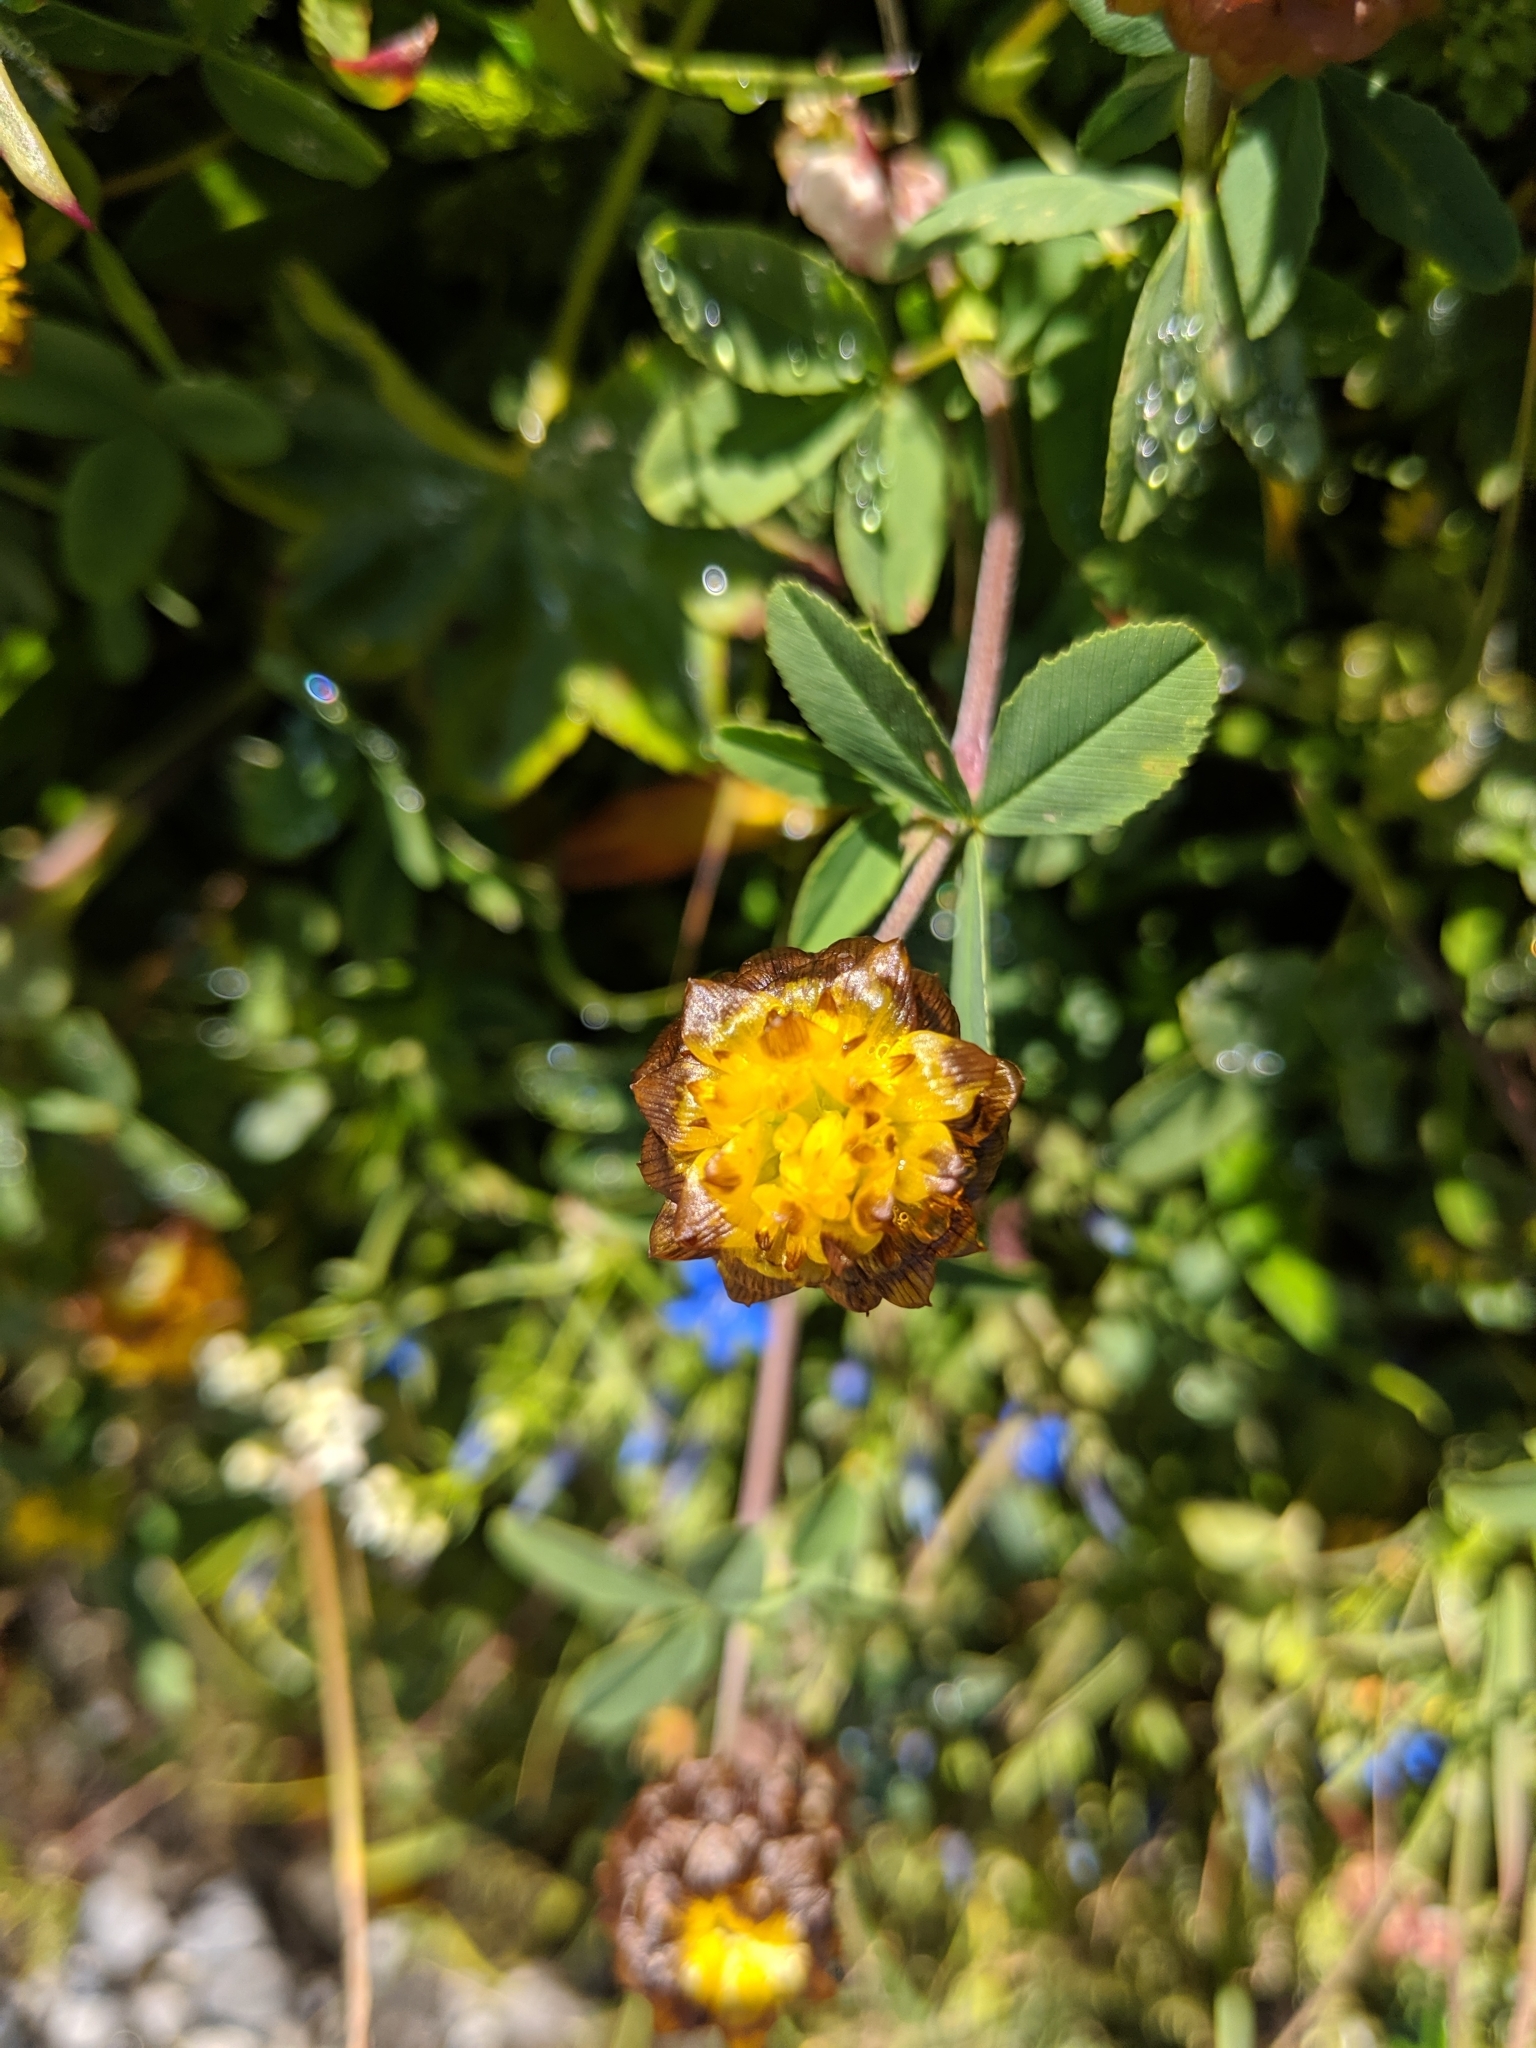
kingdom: Plantae
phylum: Tracheophyta
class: Magnoliopsida
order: Fabales
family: Fabaceae
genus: Trifolium
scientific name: Trifolium badium
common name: Brown clover
